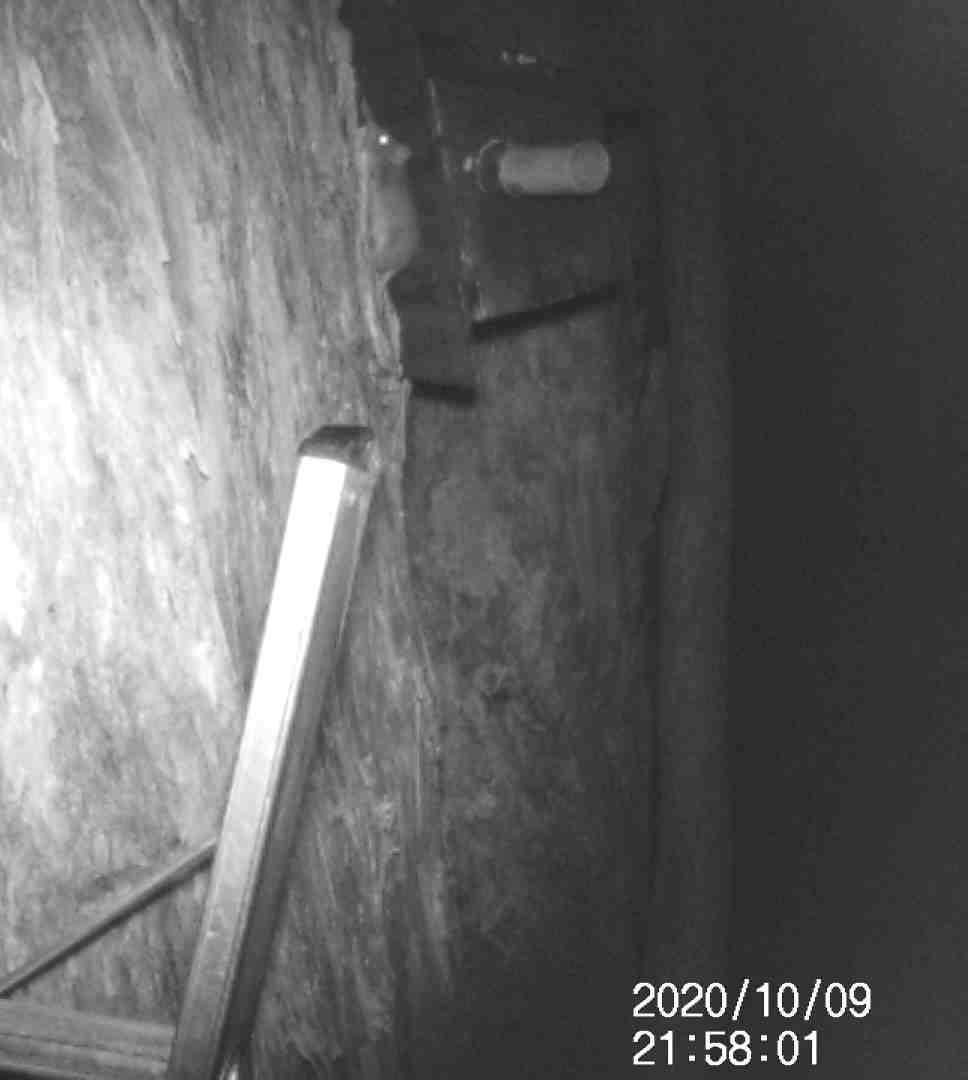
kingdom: Animalia
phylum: Chordata
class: Mammalia
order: Dasyuromorphia
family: Dasyuridae
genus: Antechinus
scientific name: Antechinus agilis
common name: Agile antechinus
